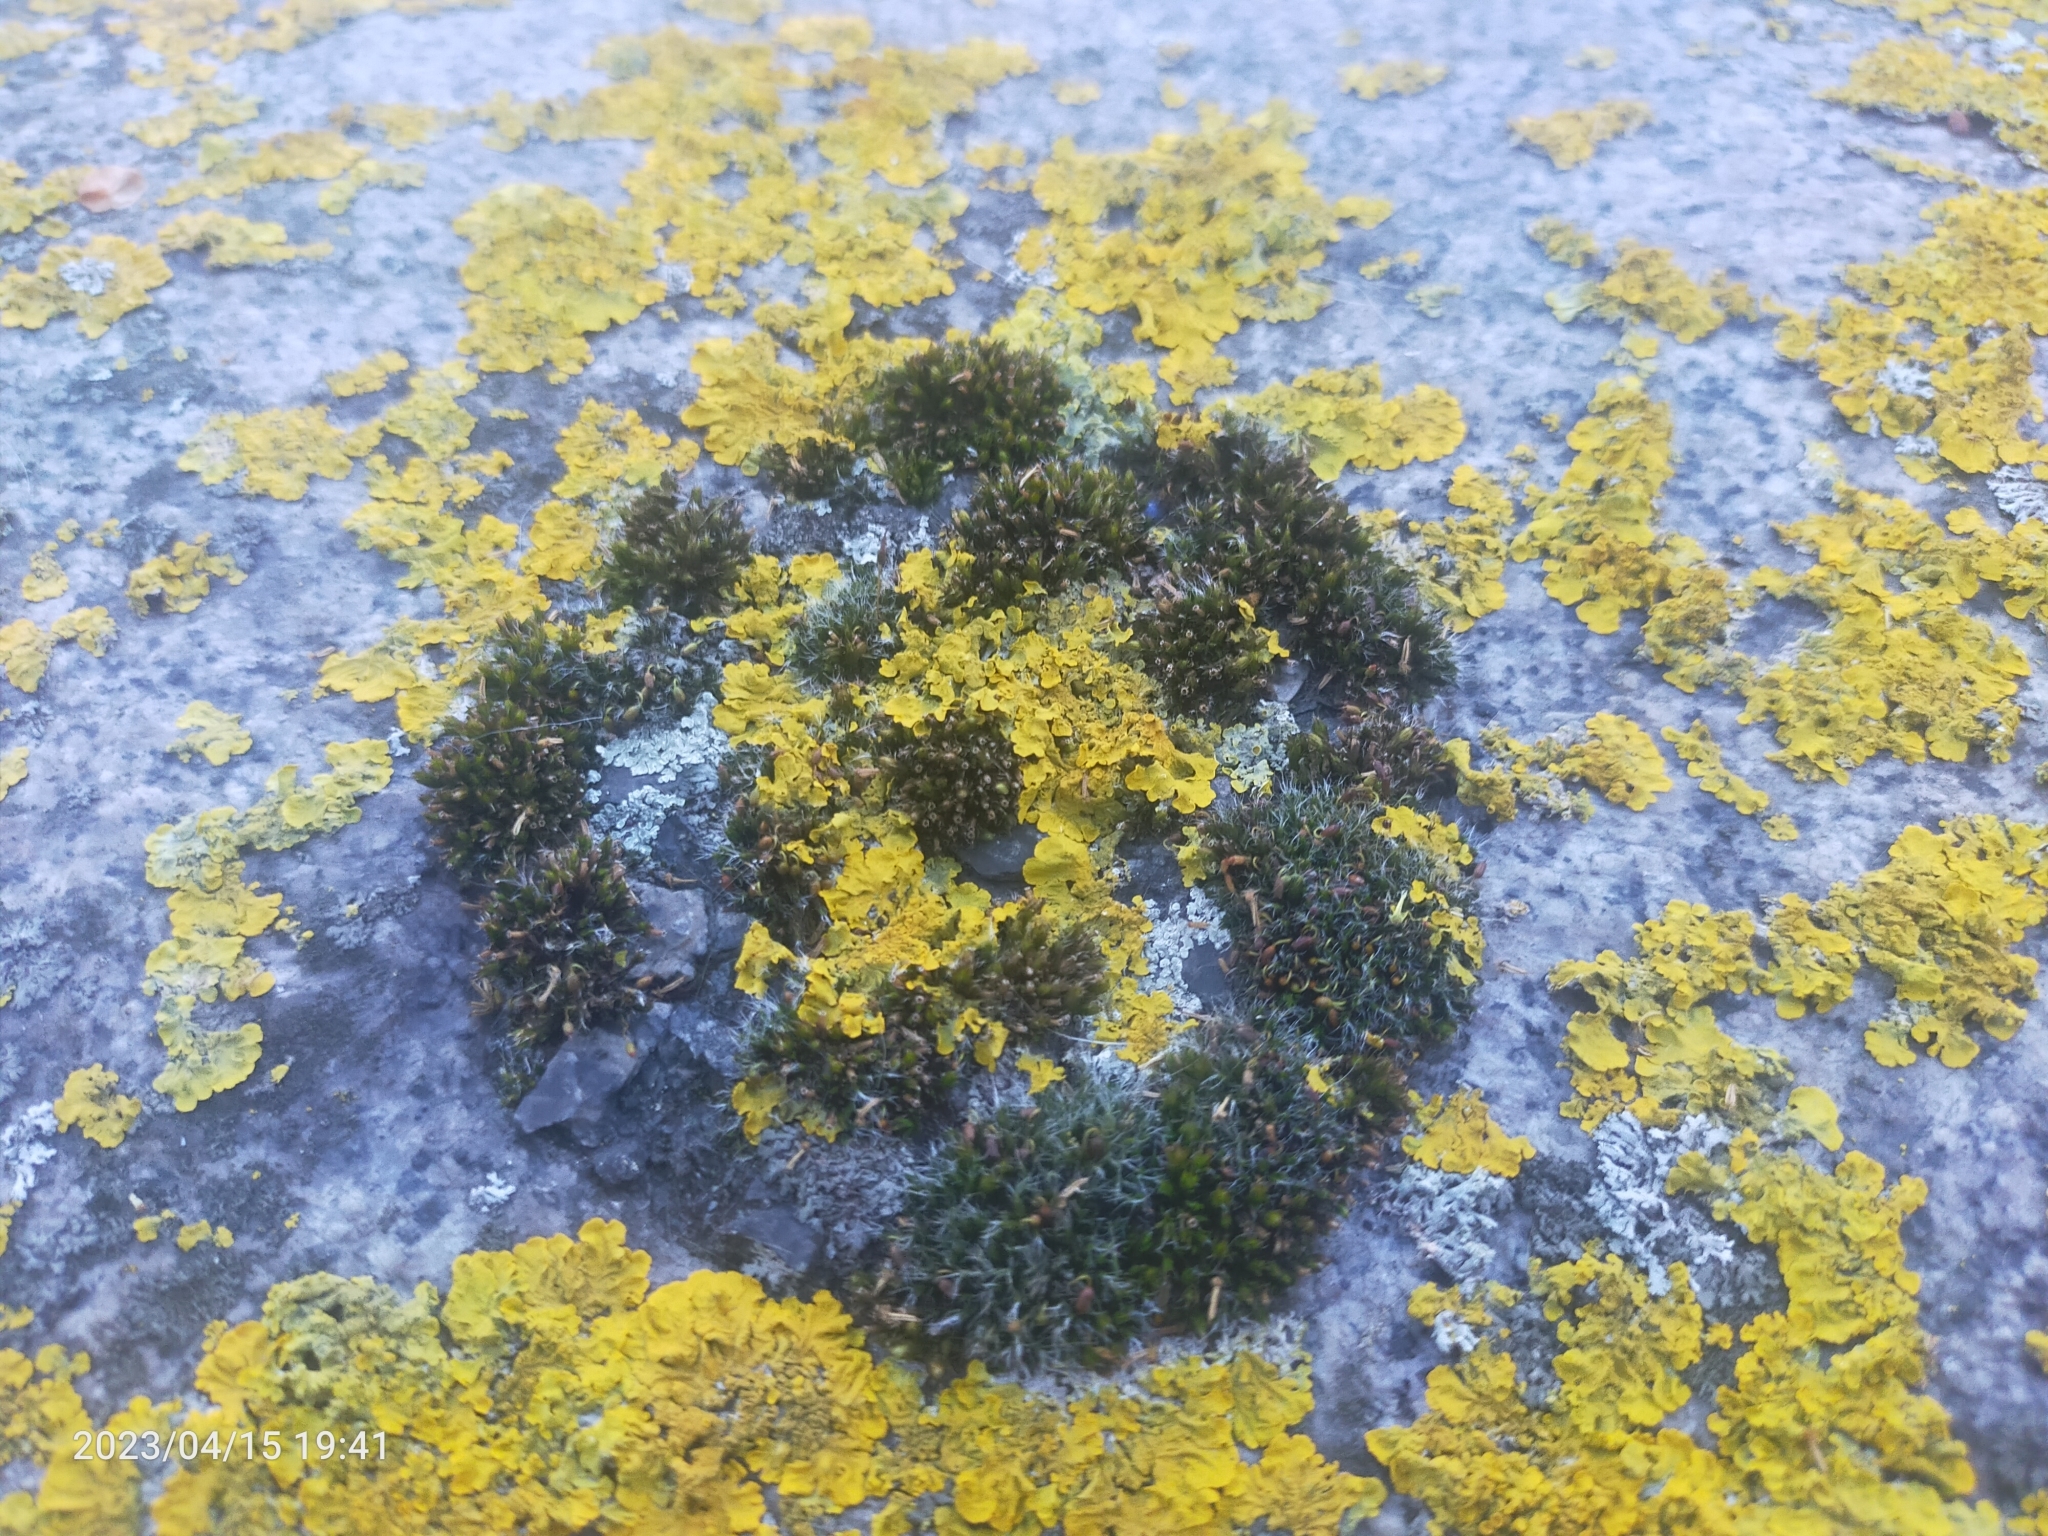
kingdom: Fungi
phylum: Ascomycota
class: Lecanoromycetes
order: Teloschistales
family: Teloschistaceae
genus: Xanthoria
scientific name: Xanthoria parietina
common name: Common orange lichen
